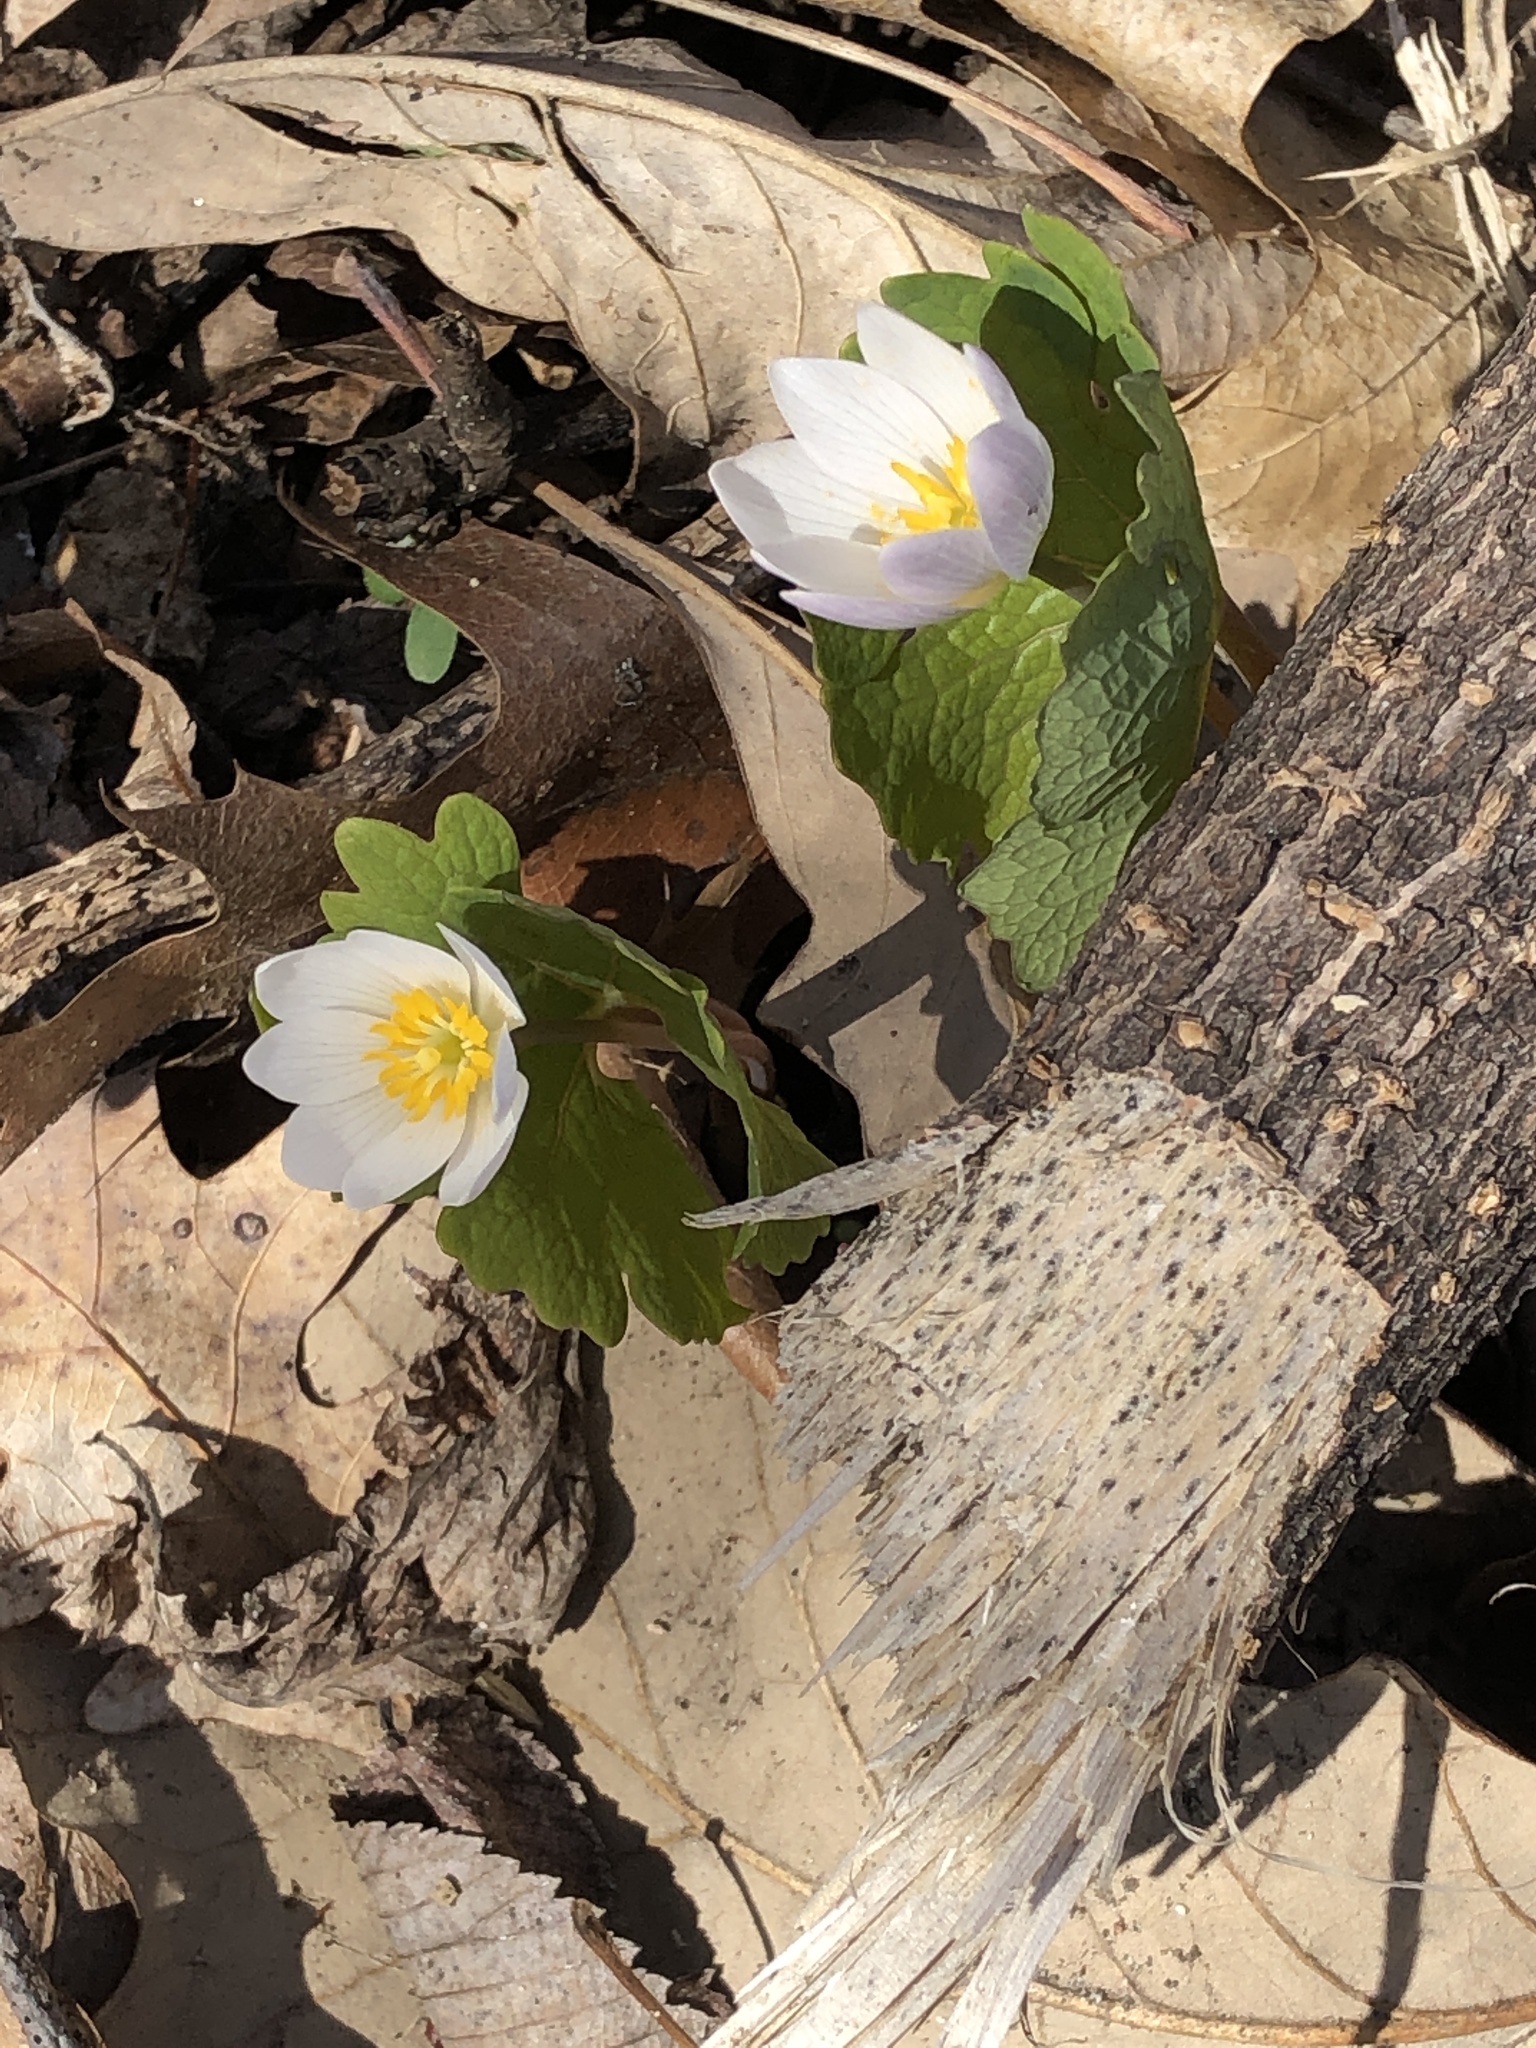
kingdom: Plantae
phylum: Tracheophyta
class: Magnoliopsida
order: Ranunculales
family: Papaveraceae
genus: Sanguinaria
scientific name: Sanguinaria canadensis
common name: Bloodroot
